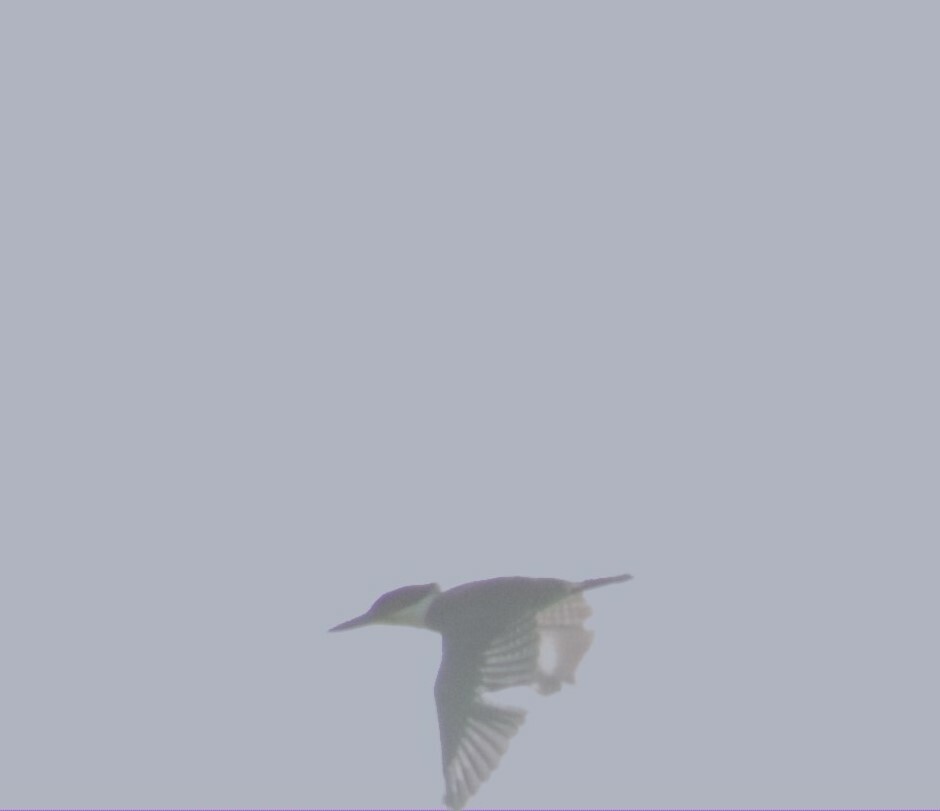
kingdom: Animalia
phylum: Chordata
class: Aves
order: Coraciiformes
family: Alcedinidae
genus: Megaceryle
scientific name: Megaceryle alcyon
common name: Belted kingfisher
